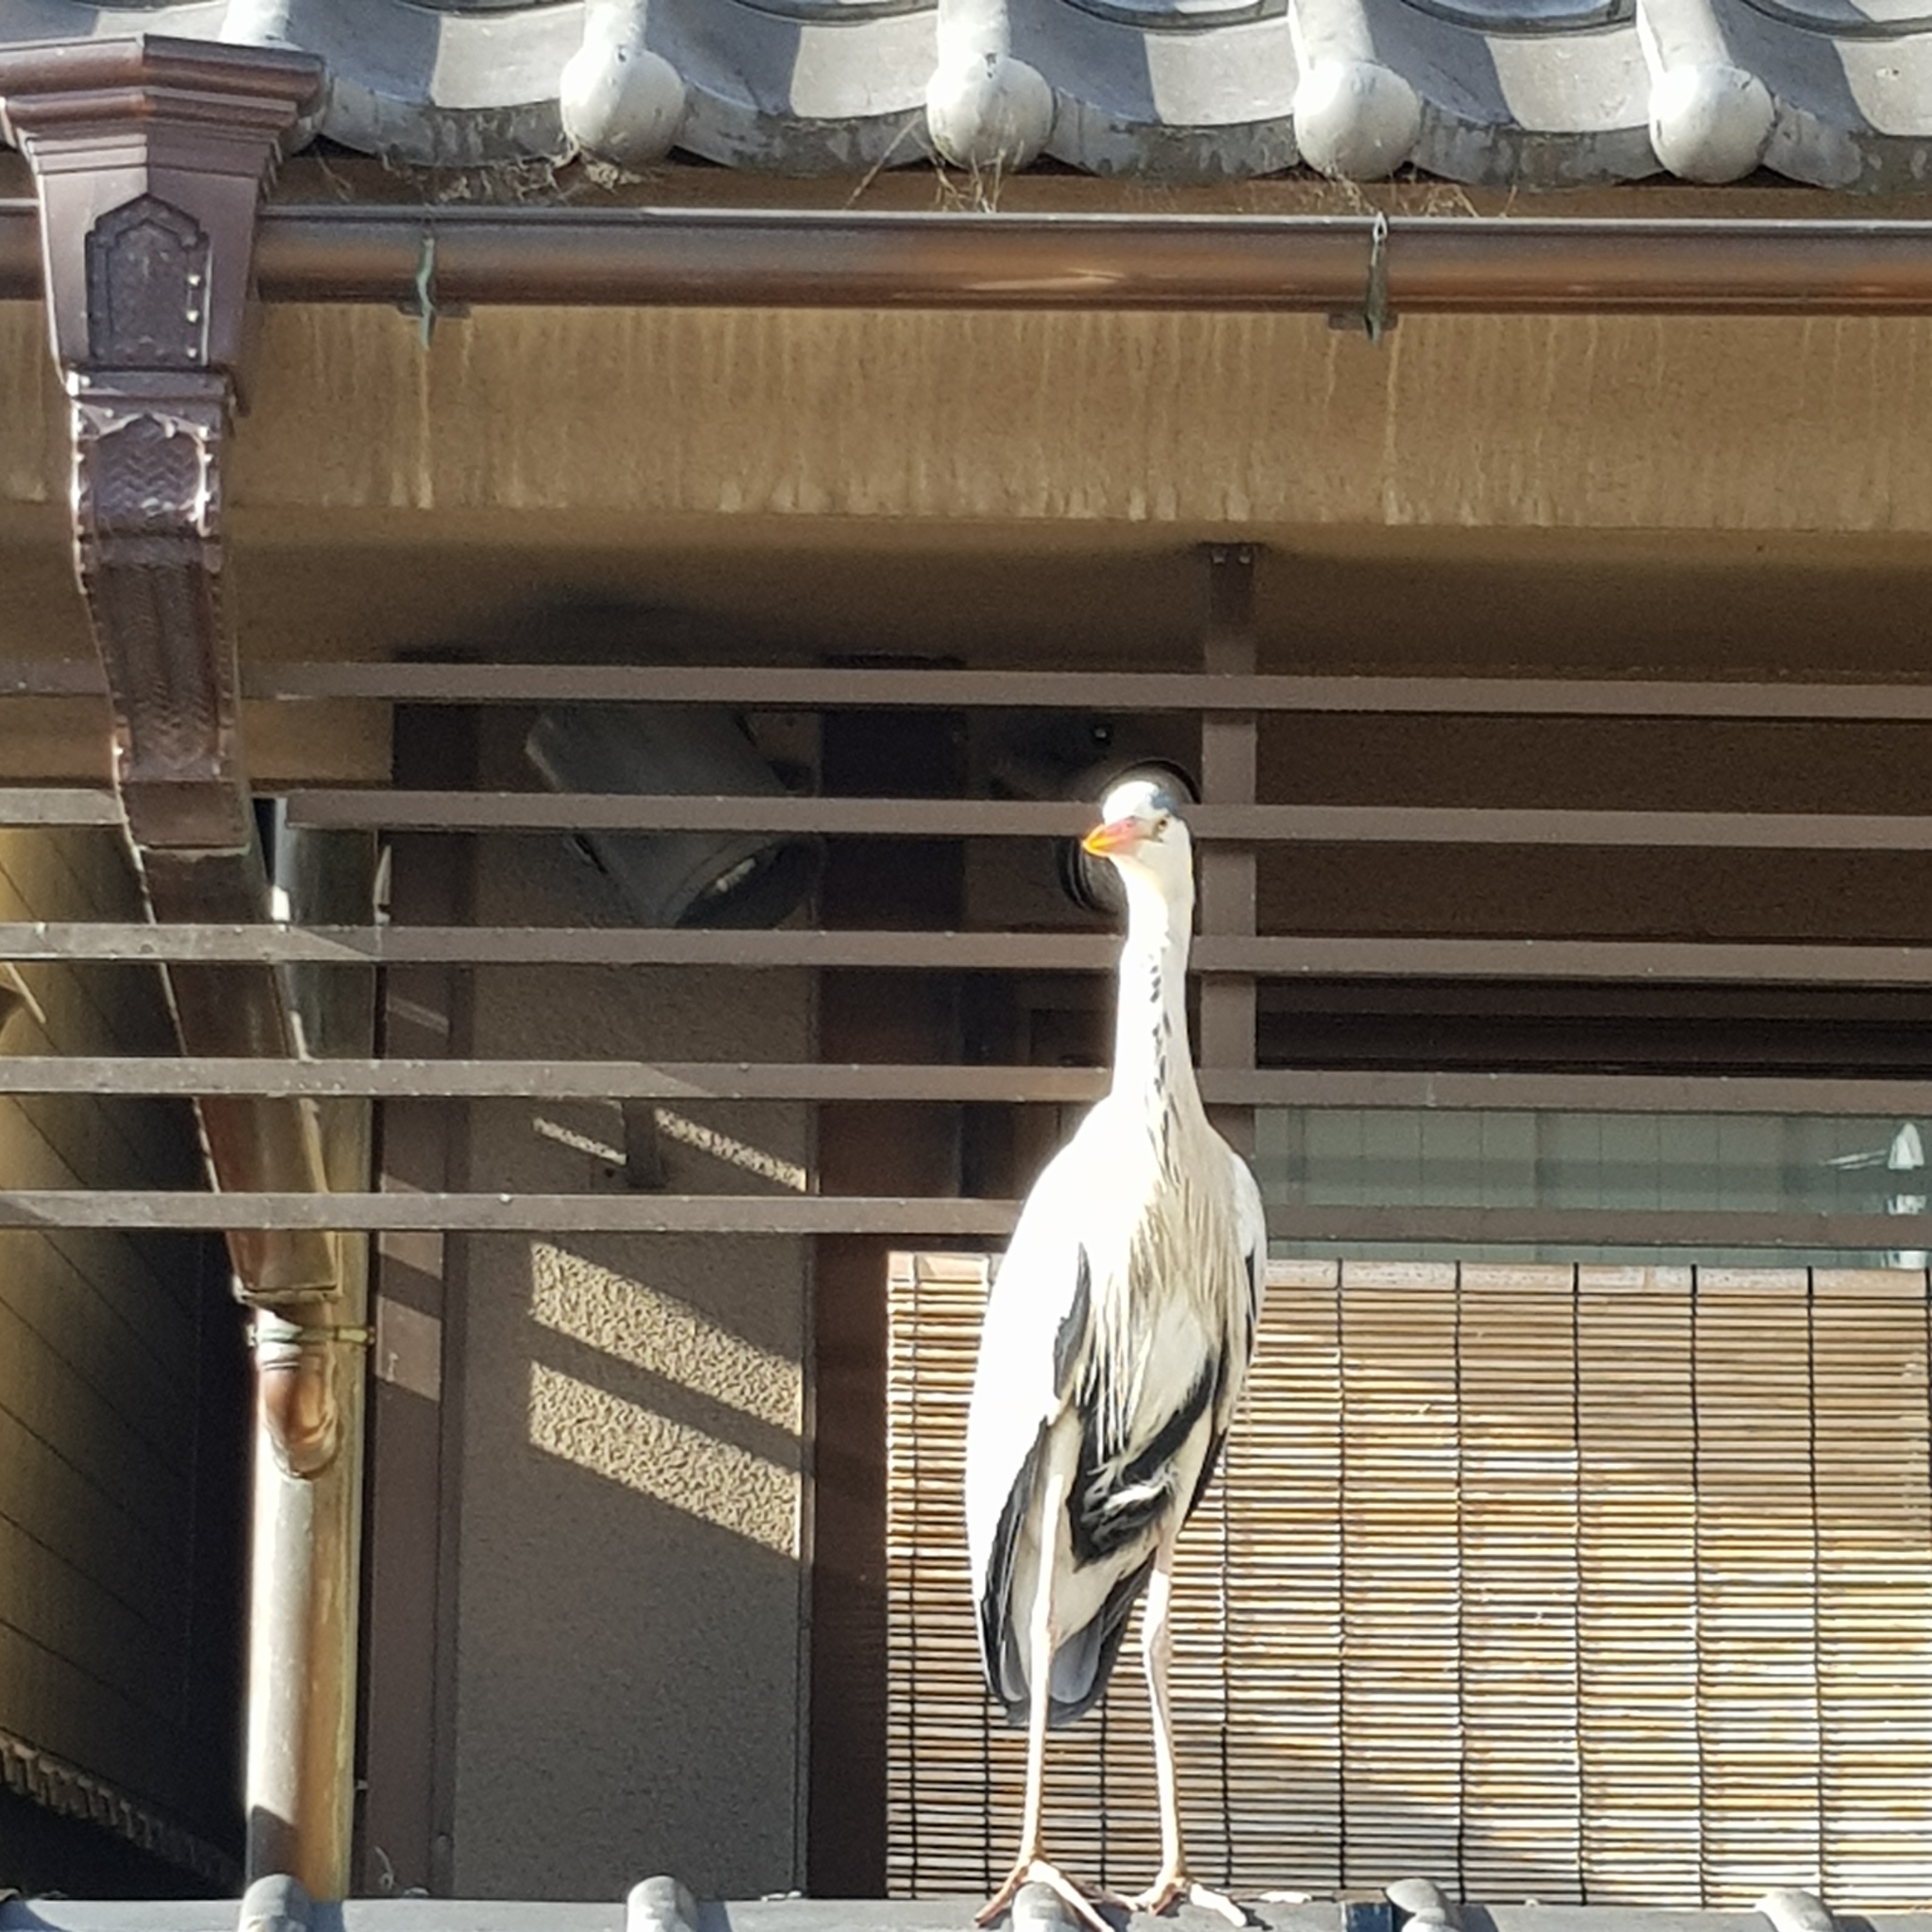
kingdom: Animalia
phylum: Chordata
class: Aves
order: Pelecaniformes
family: Ardeidae
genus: Ardea
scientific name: Ardea cinerea
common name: Grey heron
